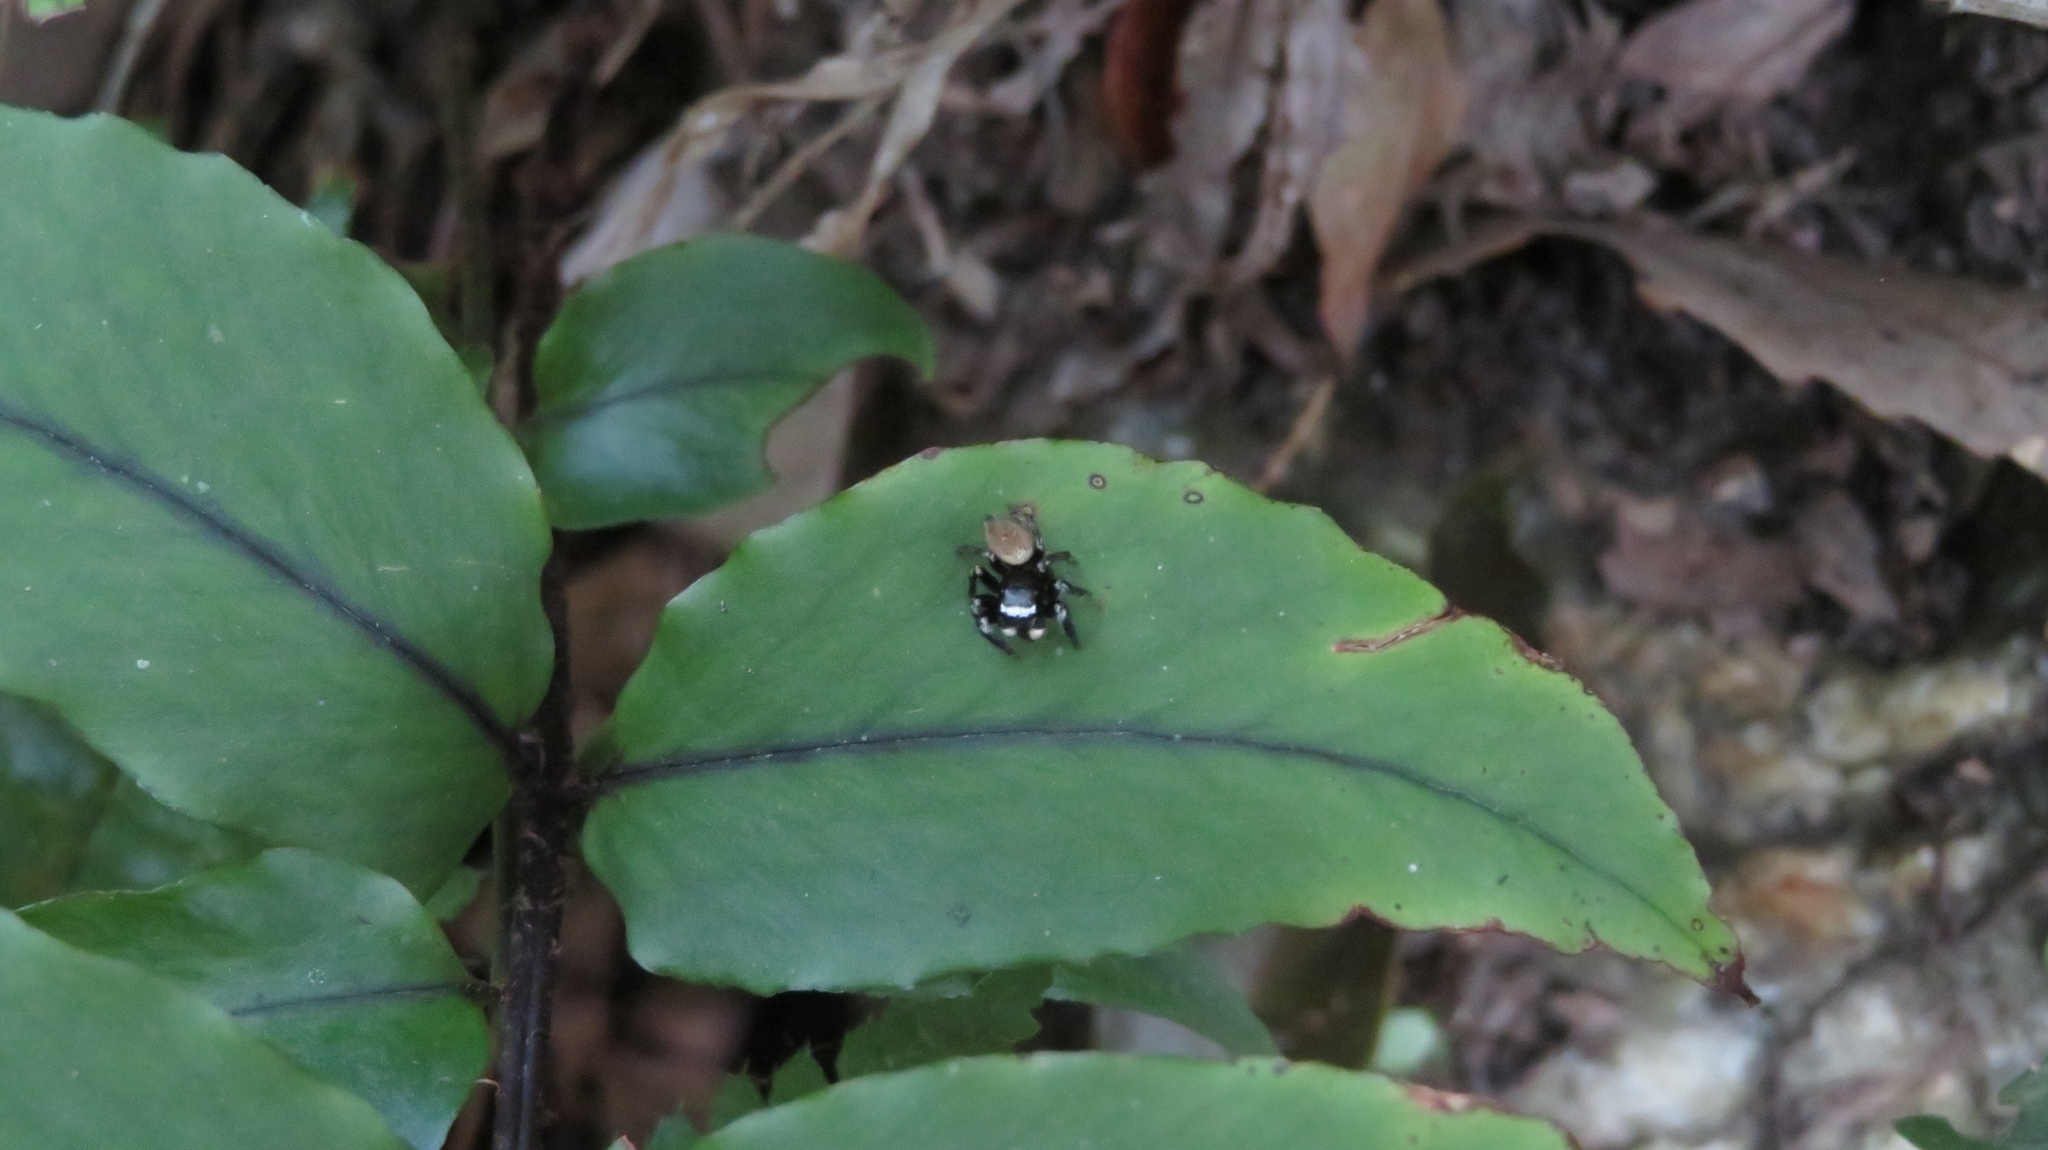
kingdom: Animalia
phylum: Arthropoda
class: Arachnida
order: Araneae
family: Salticidae
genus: Evarcha
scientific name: Evarcha albaria
